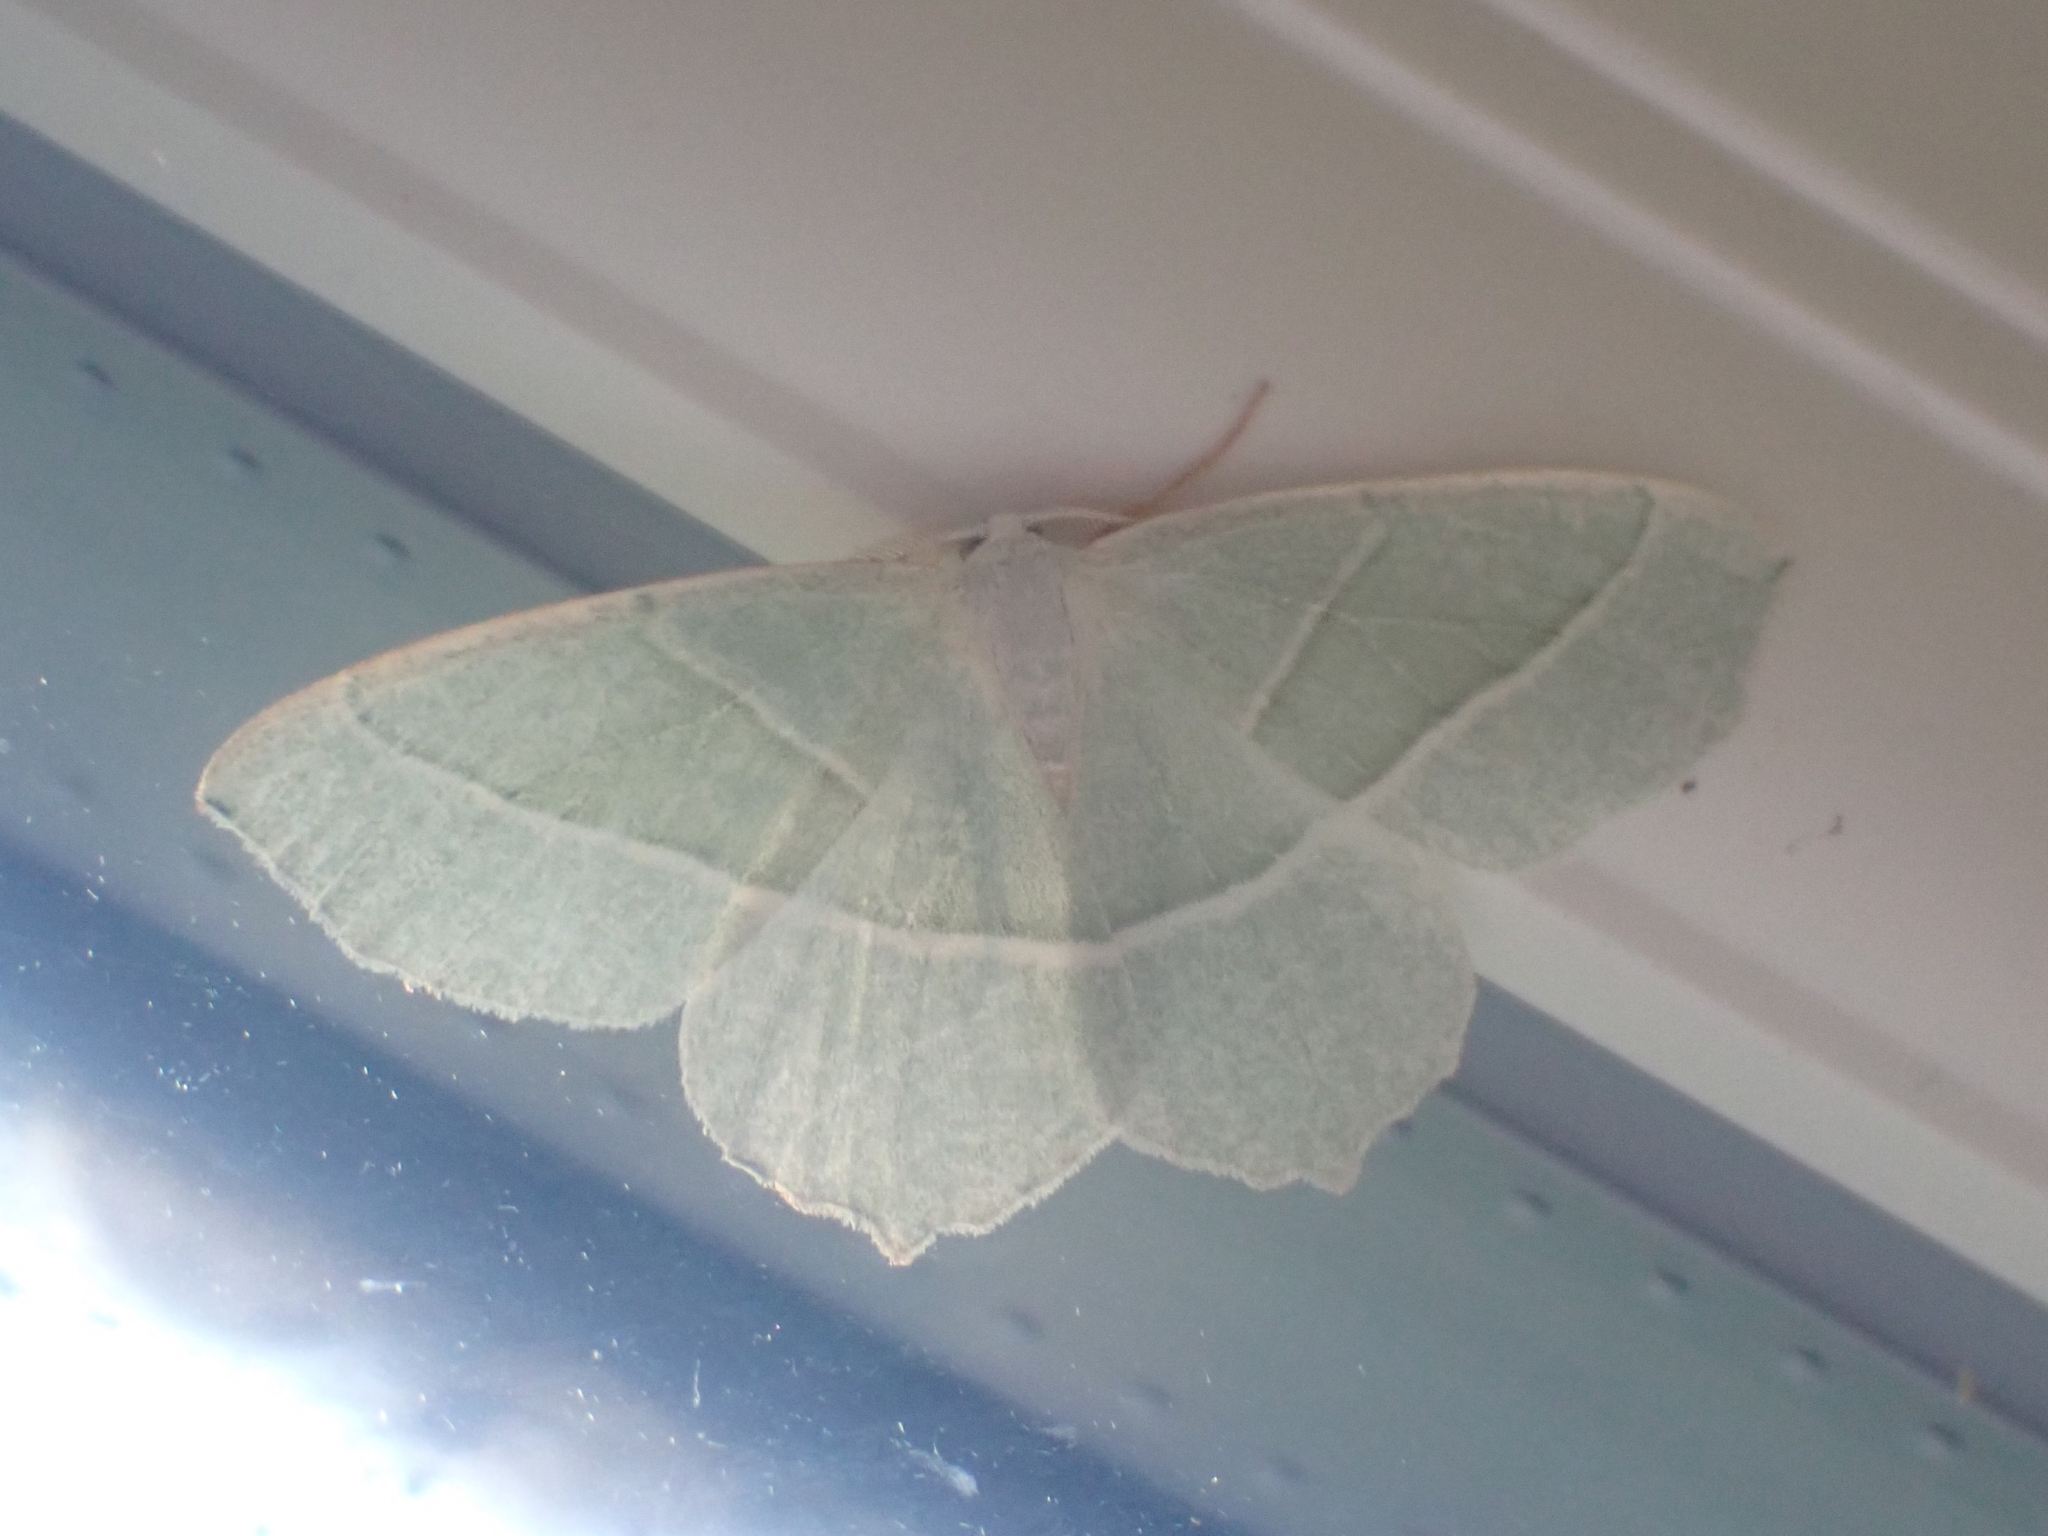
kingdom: Animalia
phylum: Arthropoda
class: Insecta
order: Lepidoptera
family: Geometridae
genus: Campaea
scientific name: Campaea margaritaria
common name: Light emerald
